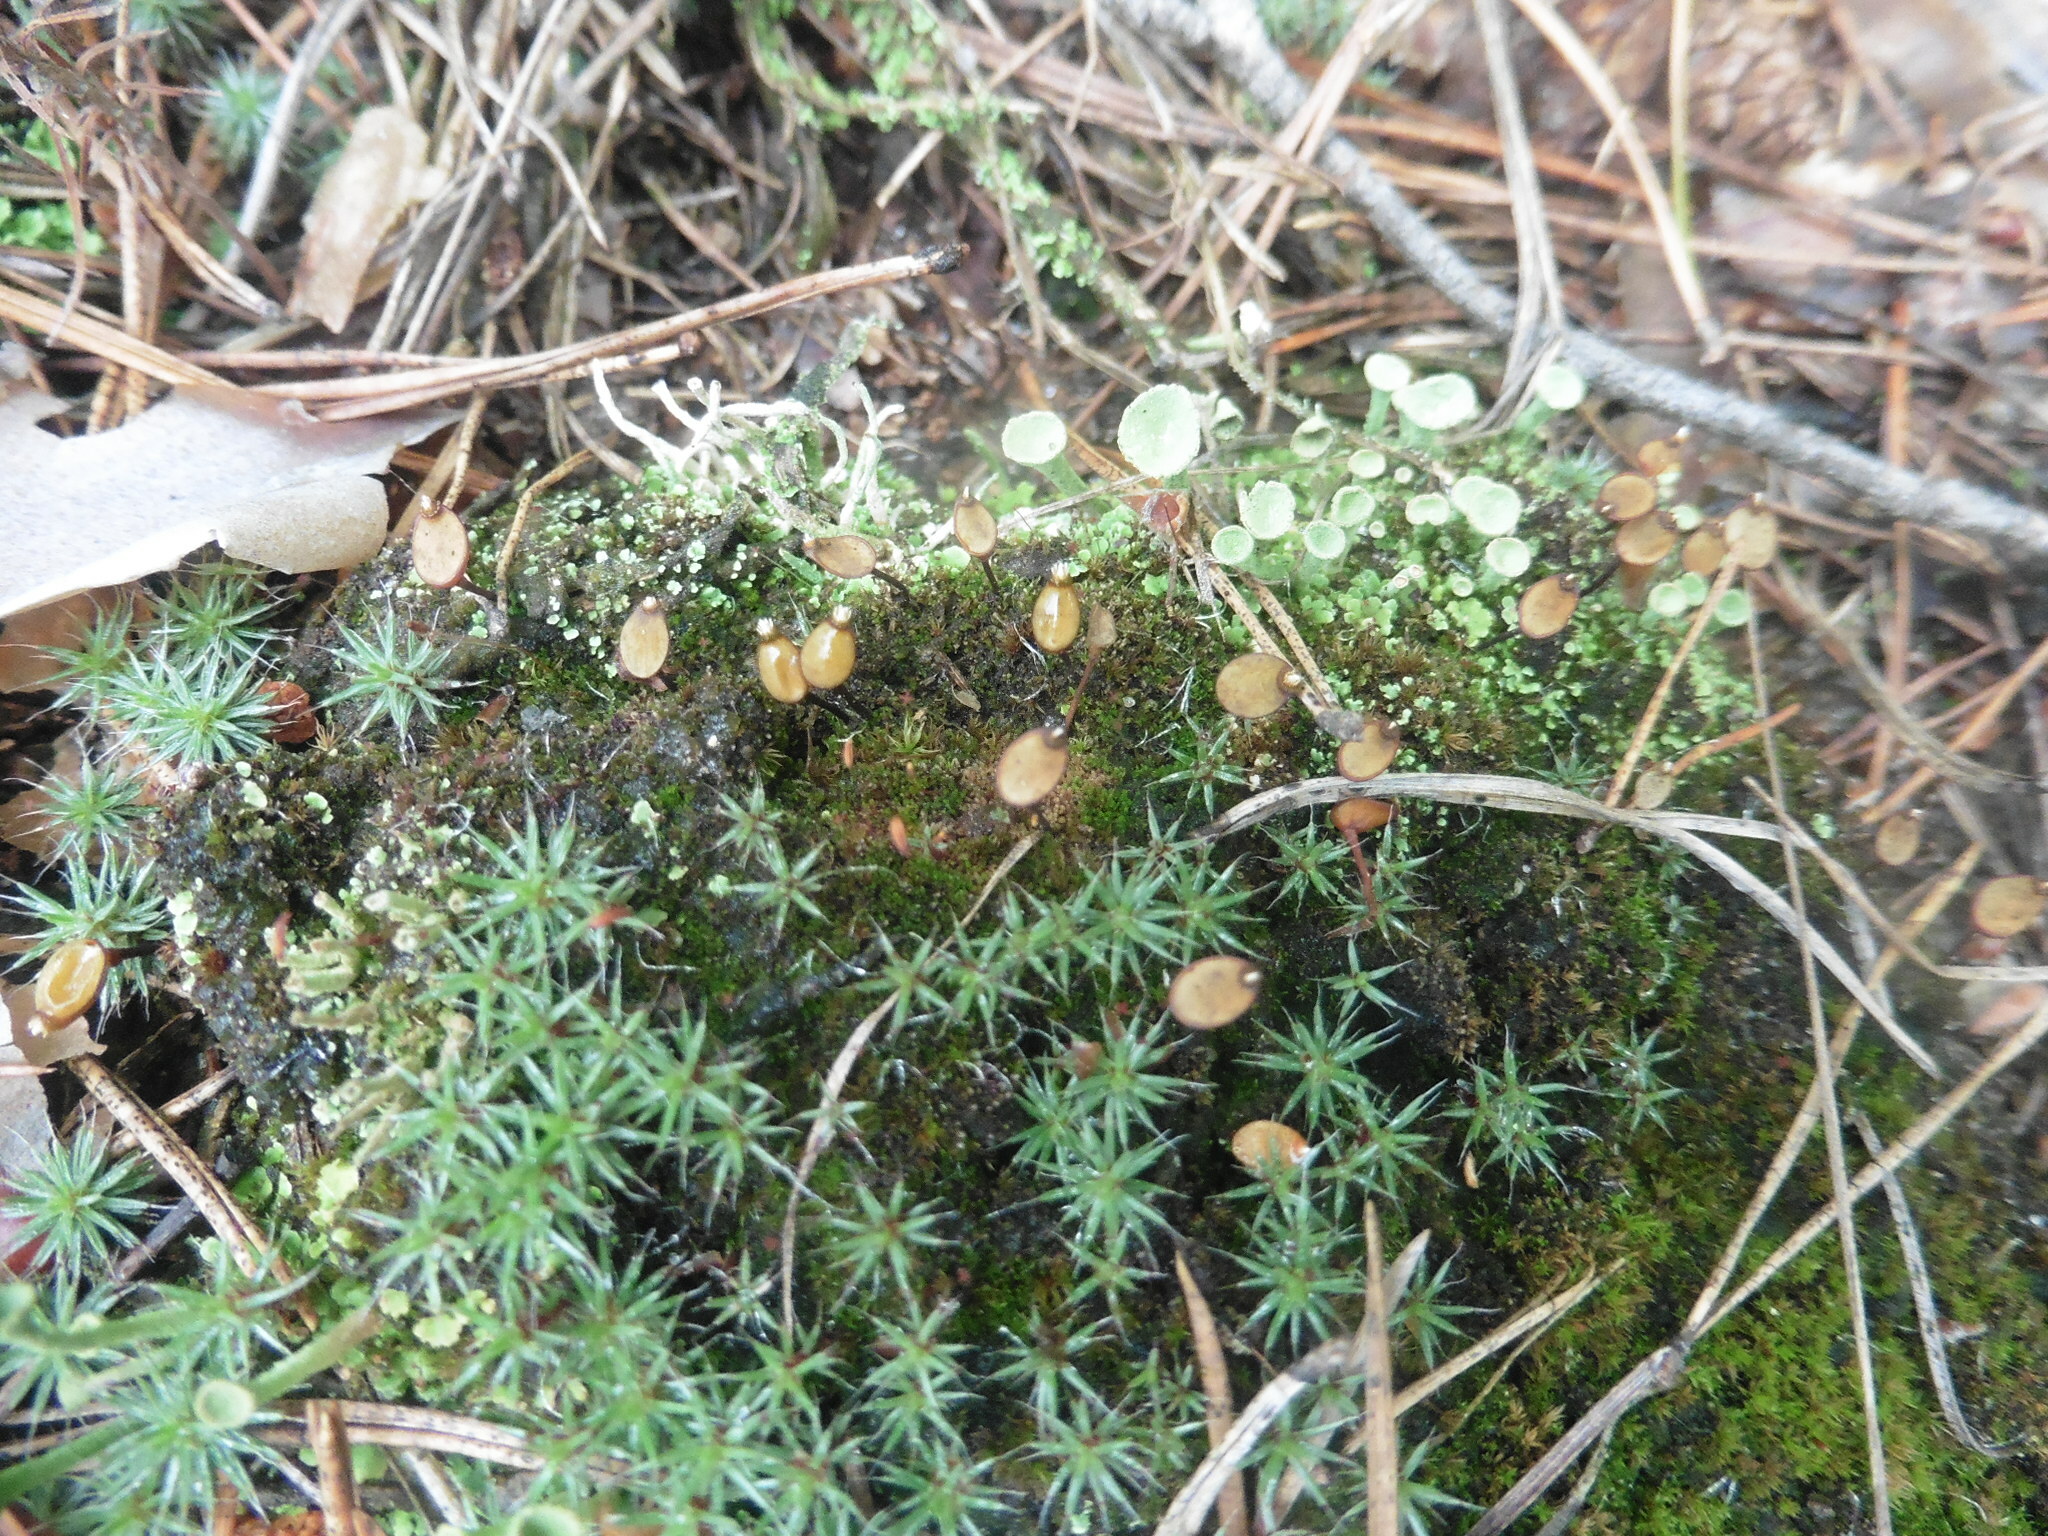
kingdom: Plantae
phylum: Bryophyta
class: Bryopsida
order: Buxbaumiales
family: Buxbaumiaceae
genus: Buxbaumia
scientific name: Buxbaumia aphylla
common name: Brown shield-moss
